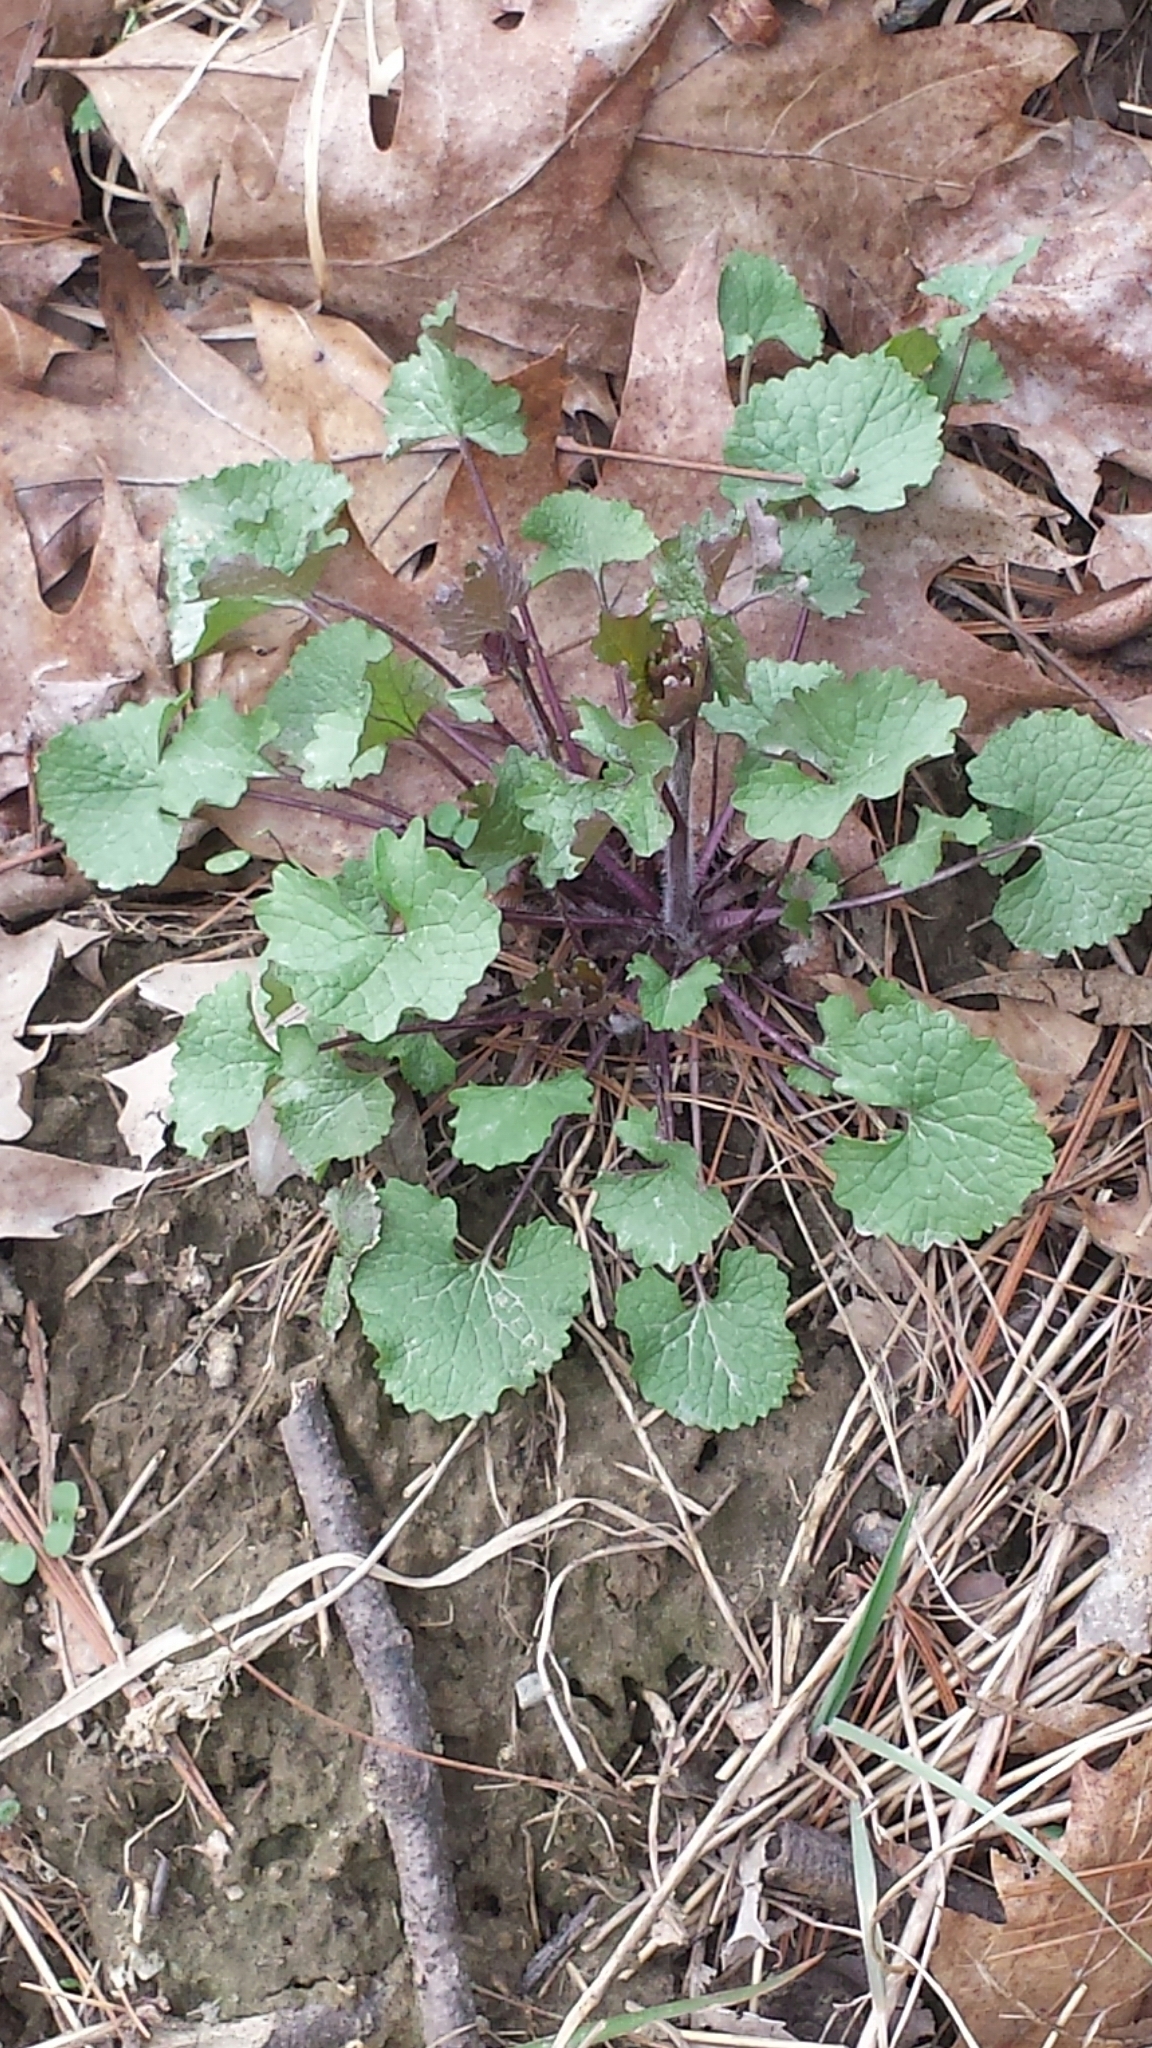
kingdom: Plantae
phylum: Tracheophyta
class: Magnoliopsida
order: Brassicales
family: Brassicaceae
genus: Alliaria
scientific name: Alliaria petiolata
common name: Garlic mustard
